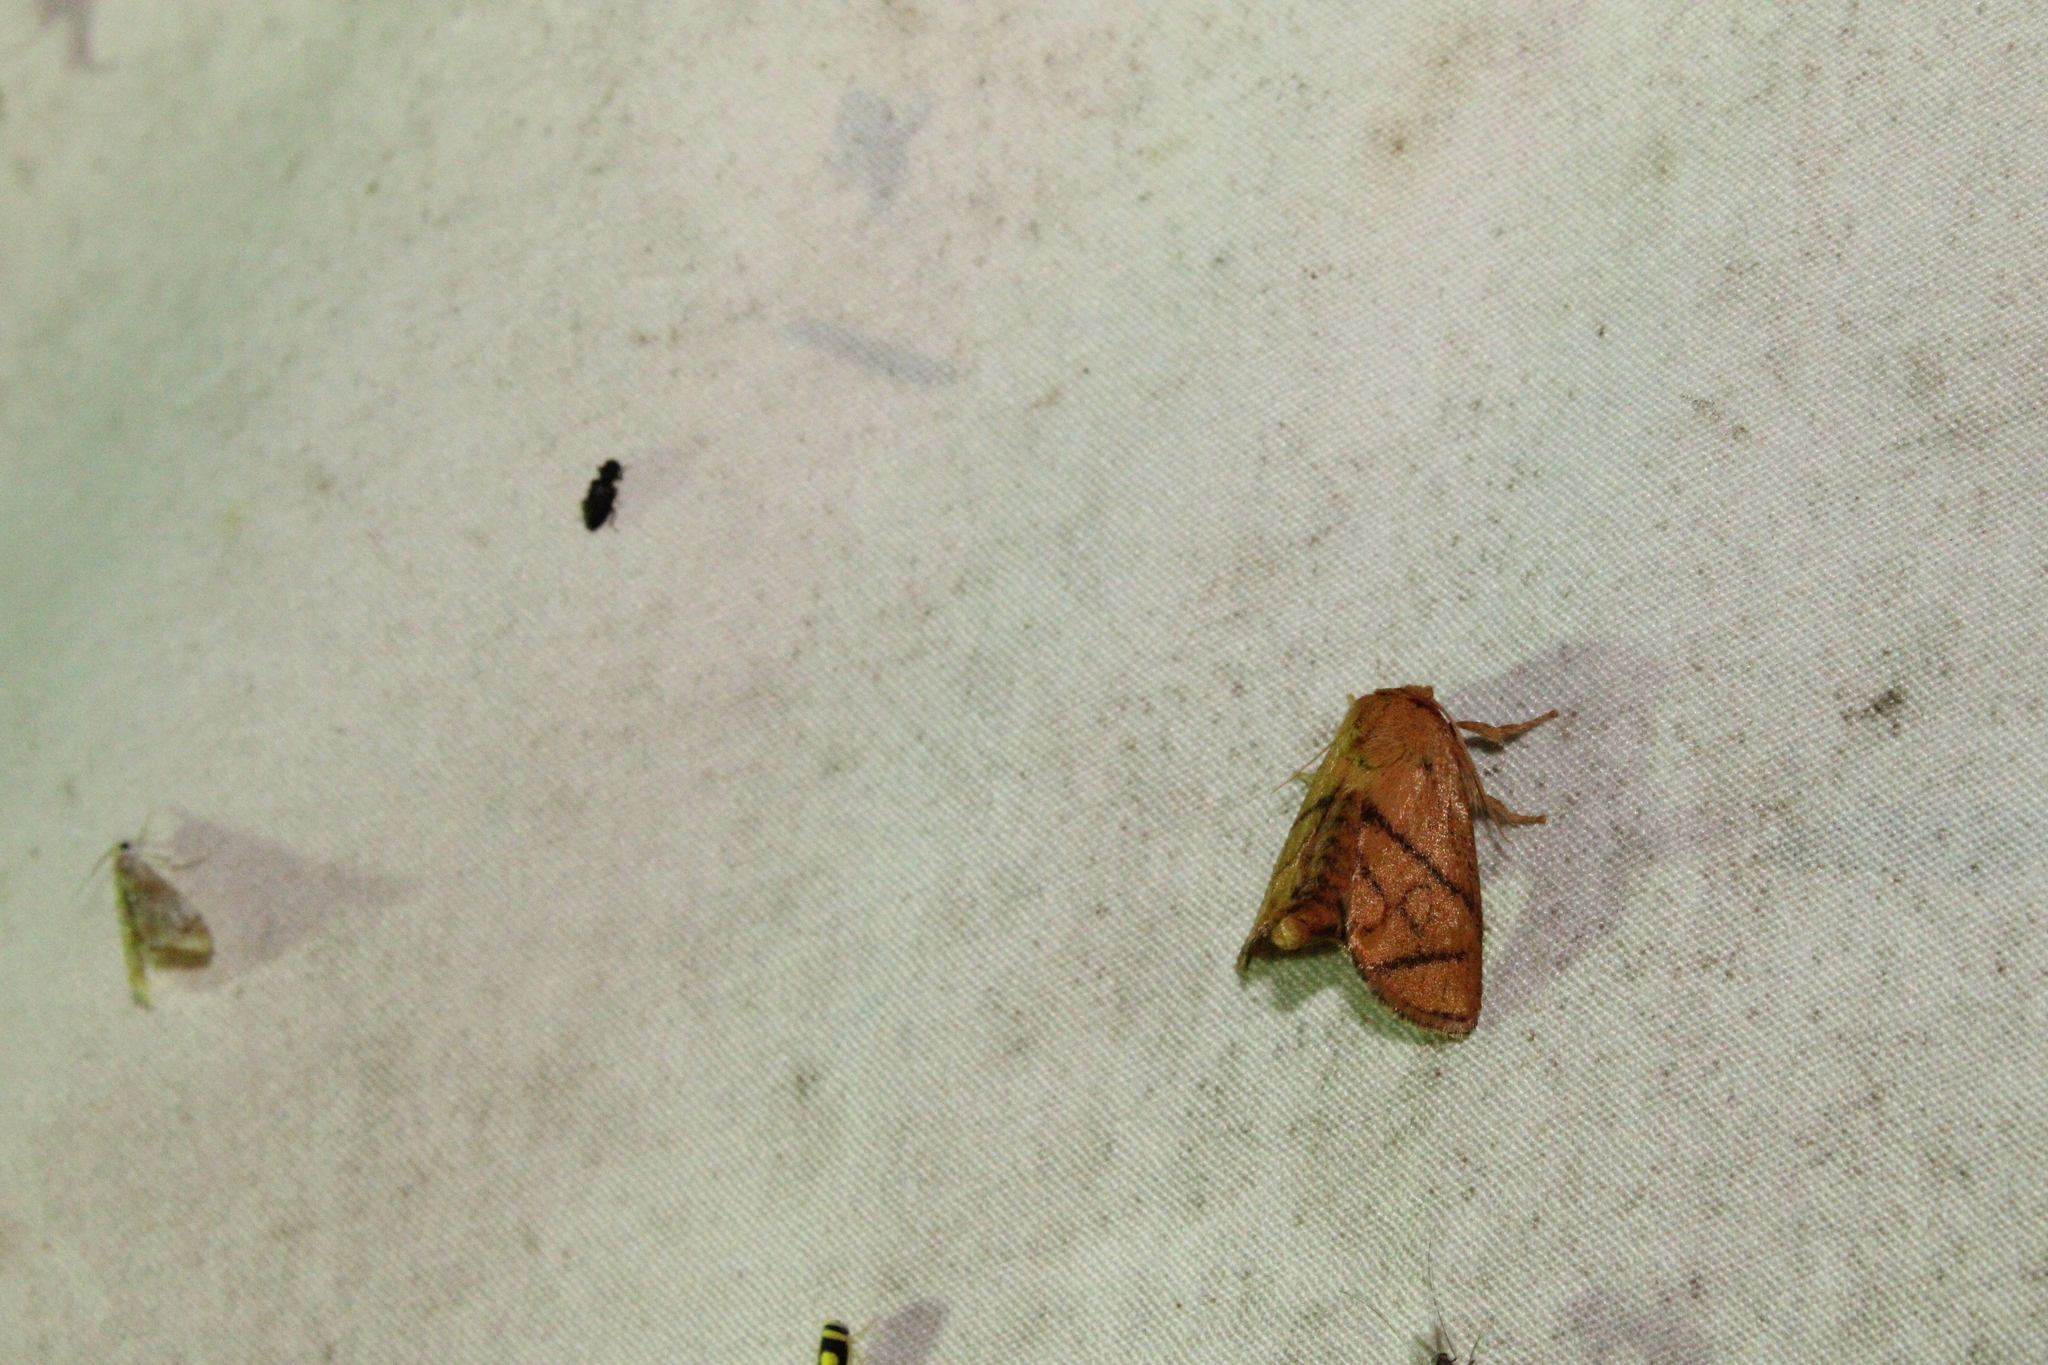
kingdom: Animalia
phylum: Arthropoda
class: Insecta
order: Lepidoptera
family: Limacodidae
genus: Apoda
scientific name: Apoda y-inversa
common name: Yellow-collared slug moth
